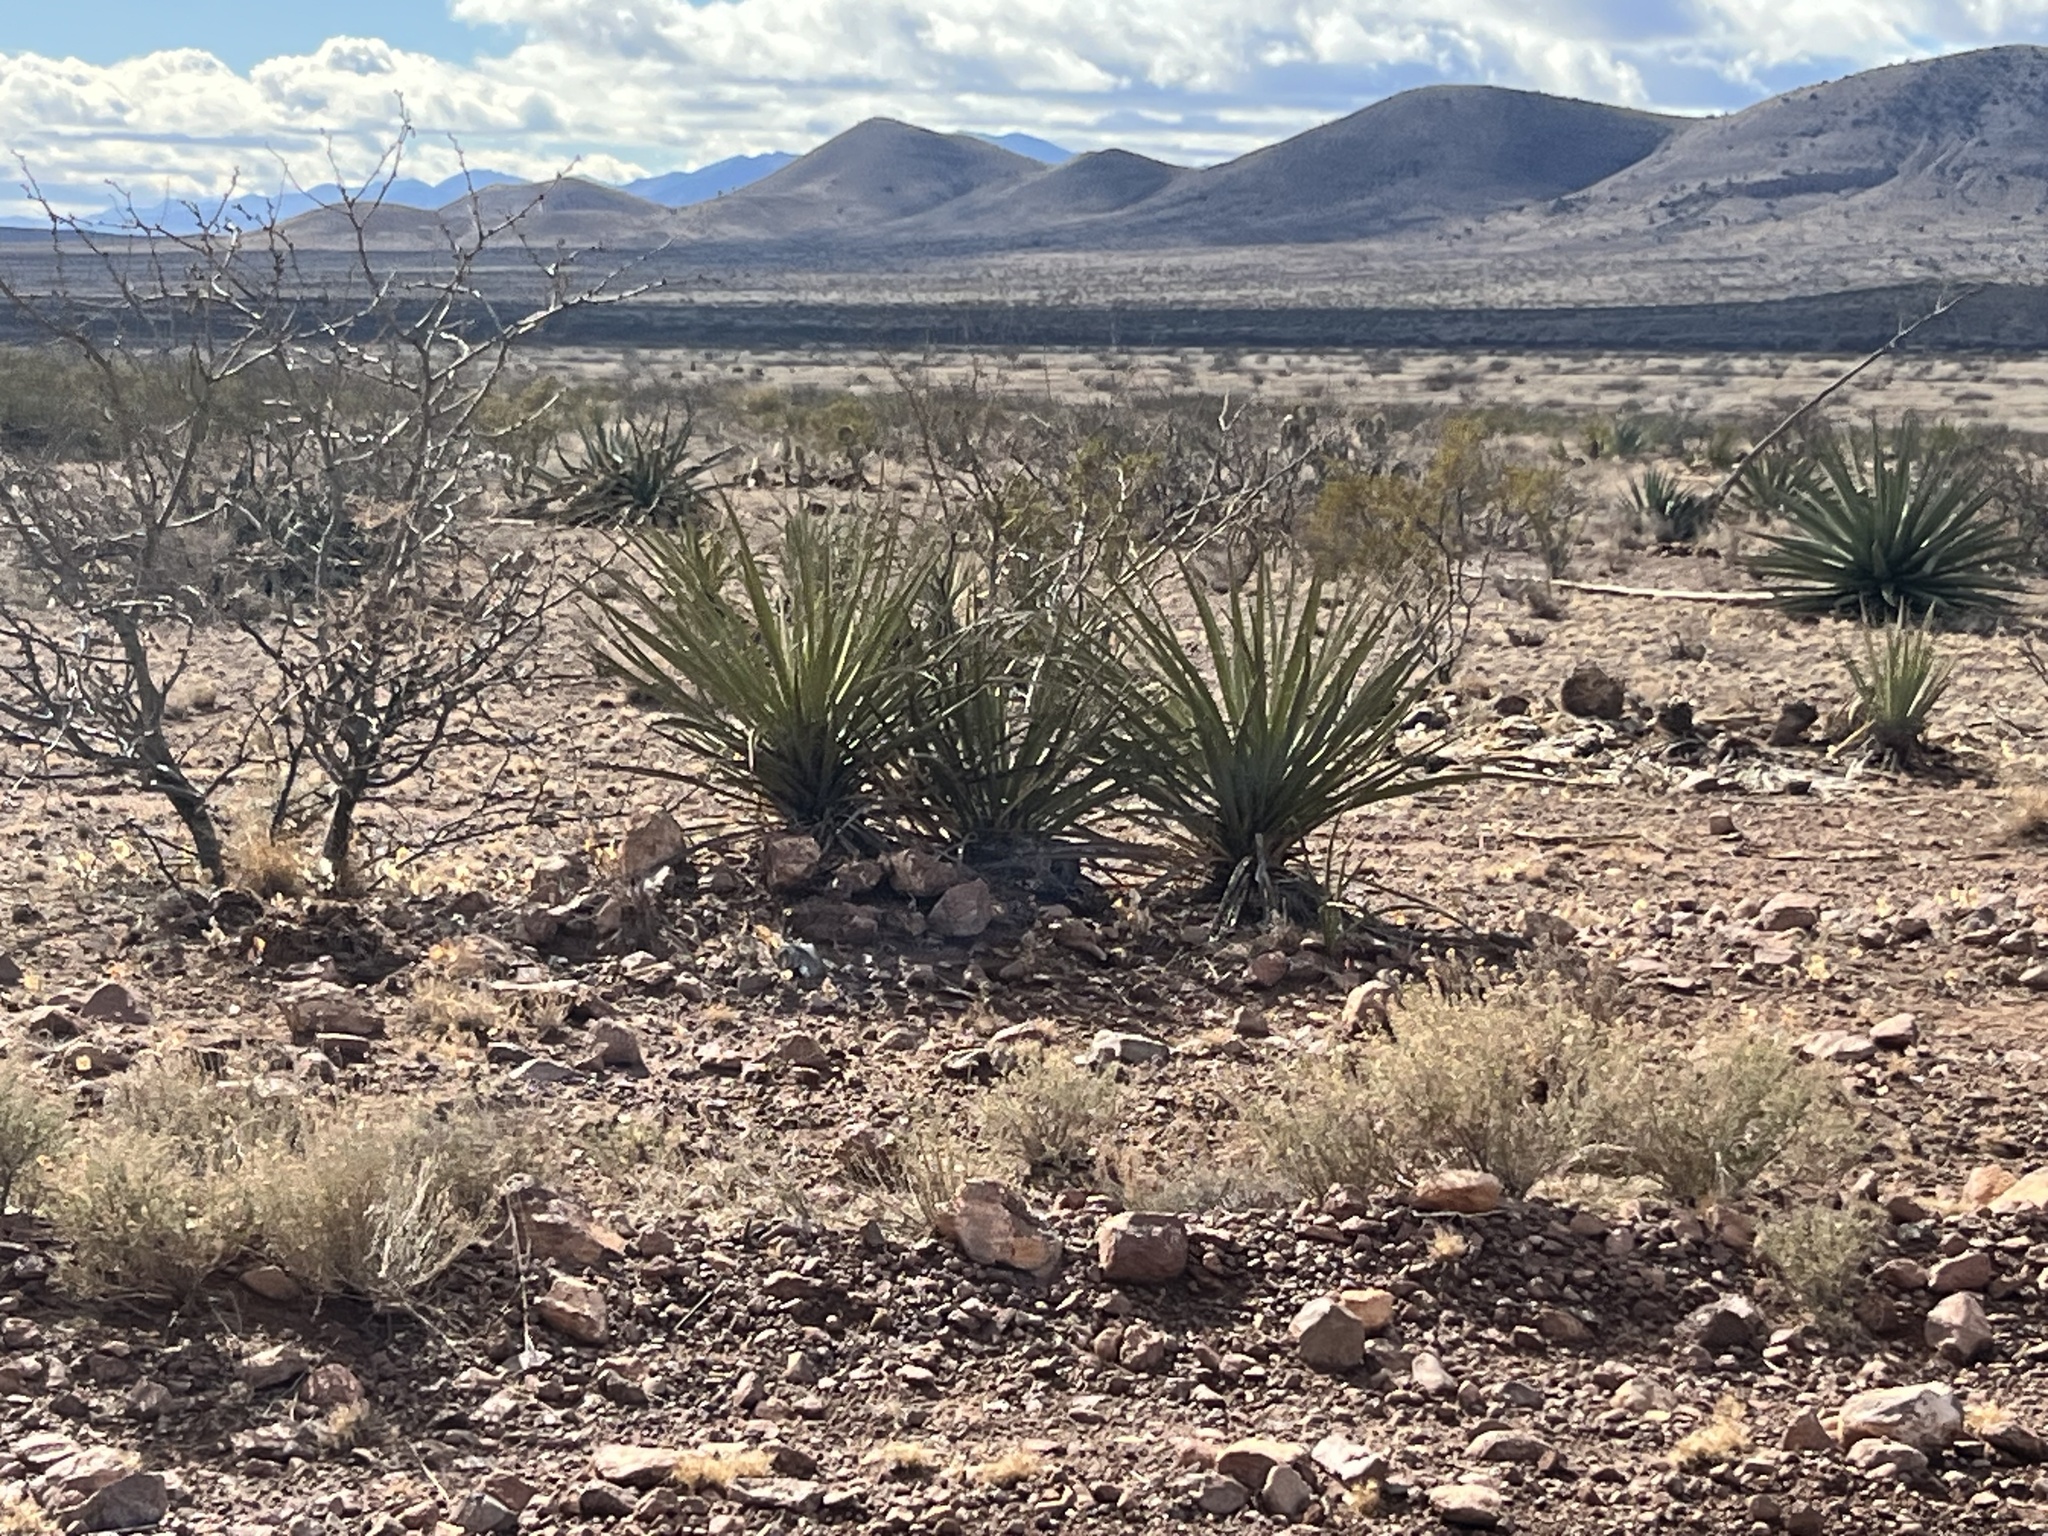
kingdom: Plantae
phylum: Tracheophyta
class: Liliopsida
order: Asparagales
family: Asparagaceae
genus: Yucca
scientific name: Yucca baccata
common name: Banana yucca
